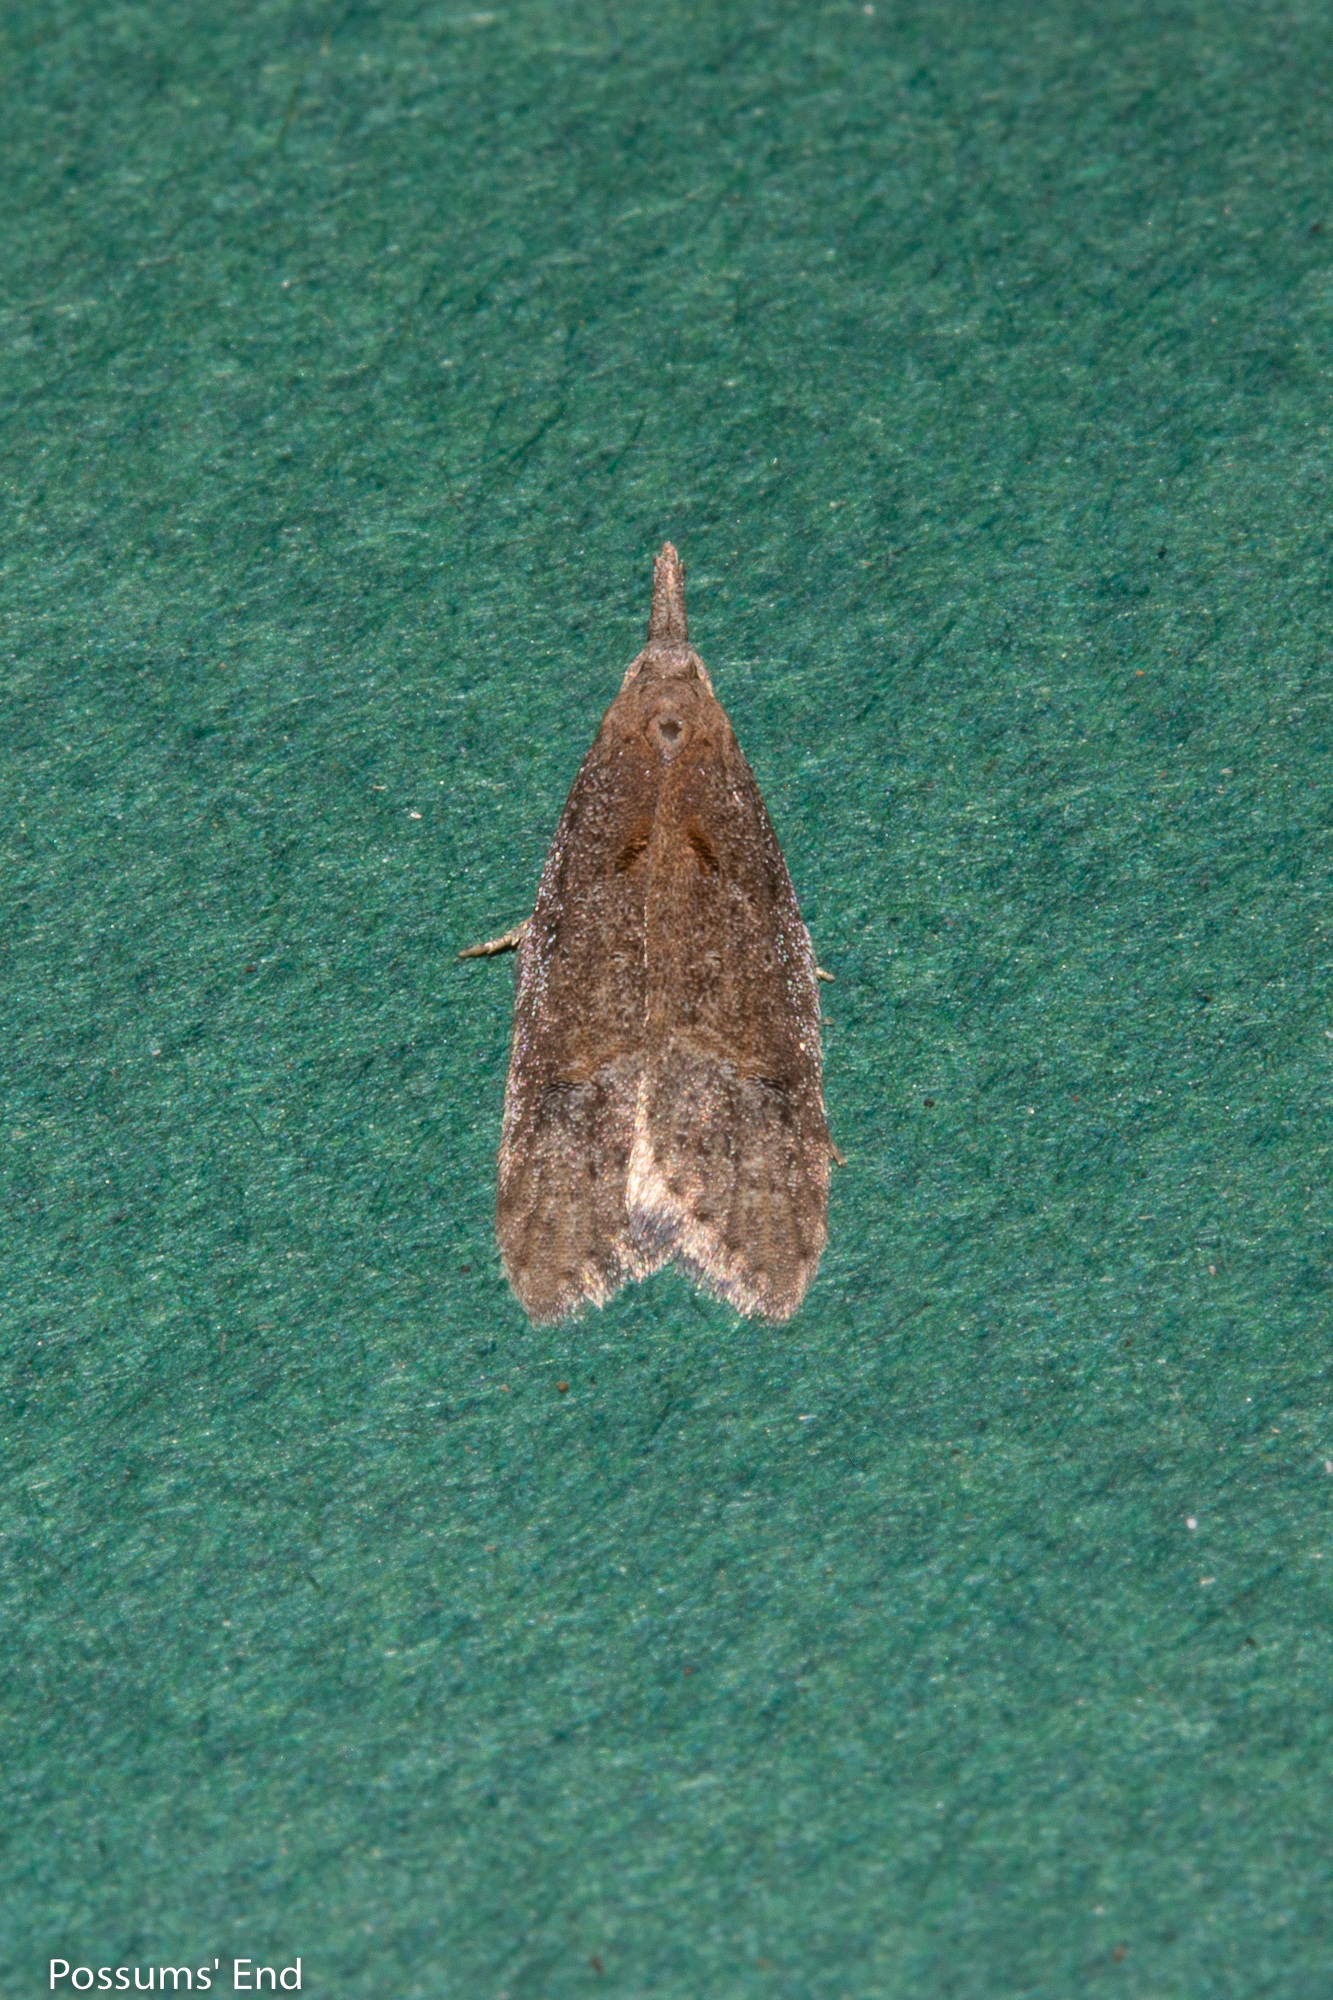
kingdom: Animalia
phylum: Arthropoda
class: Insecta
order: Lepidoptera
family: Carposinidae
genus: Carposina
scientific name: Carposina rubophaga
